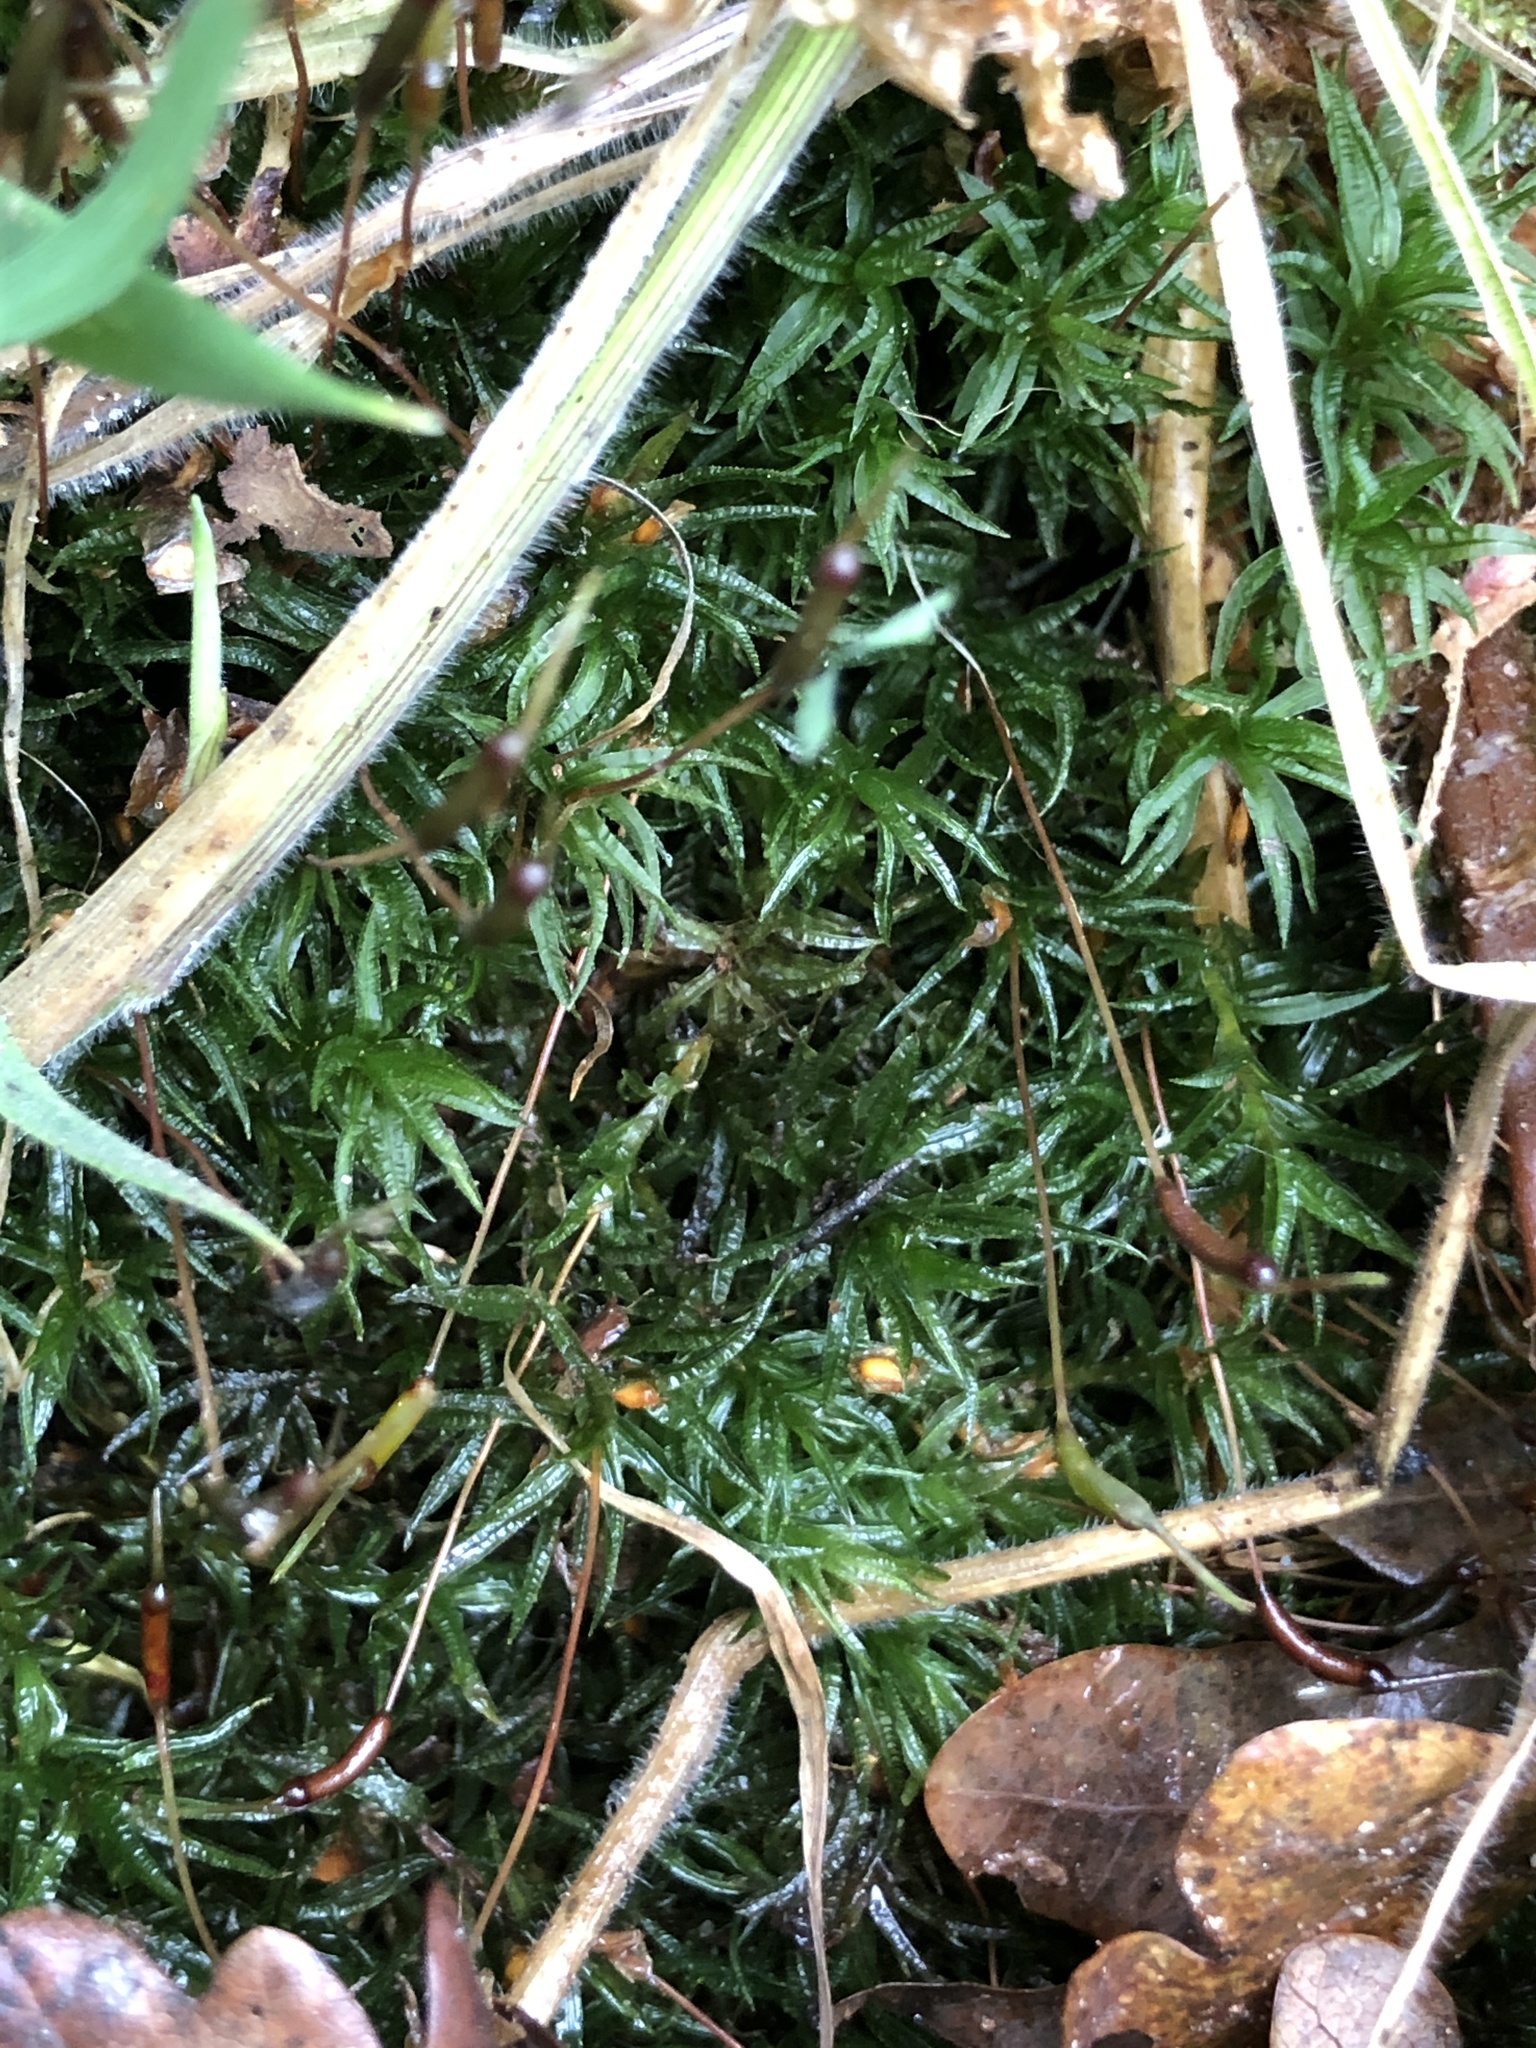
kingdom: Plantae
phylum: Bryophyta
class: Polytrichopsida
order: Polytrichales
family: Polytrichaceae
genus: Atrichum
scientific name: Atrichum undulatum
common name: Common smoothcap
